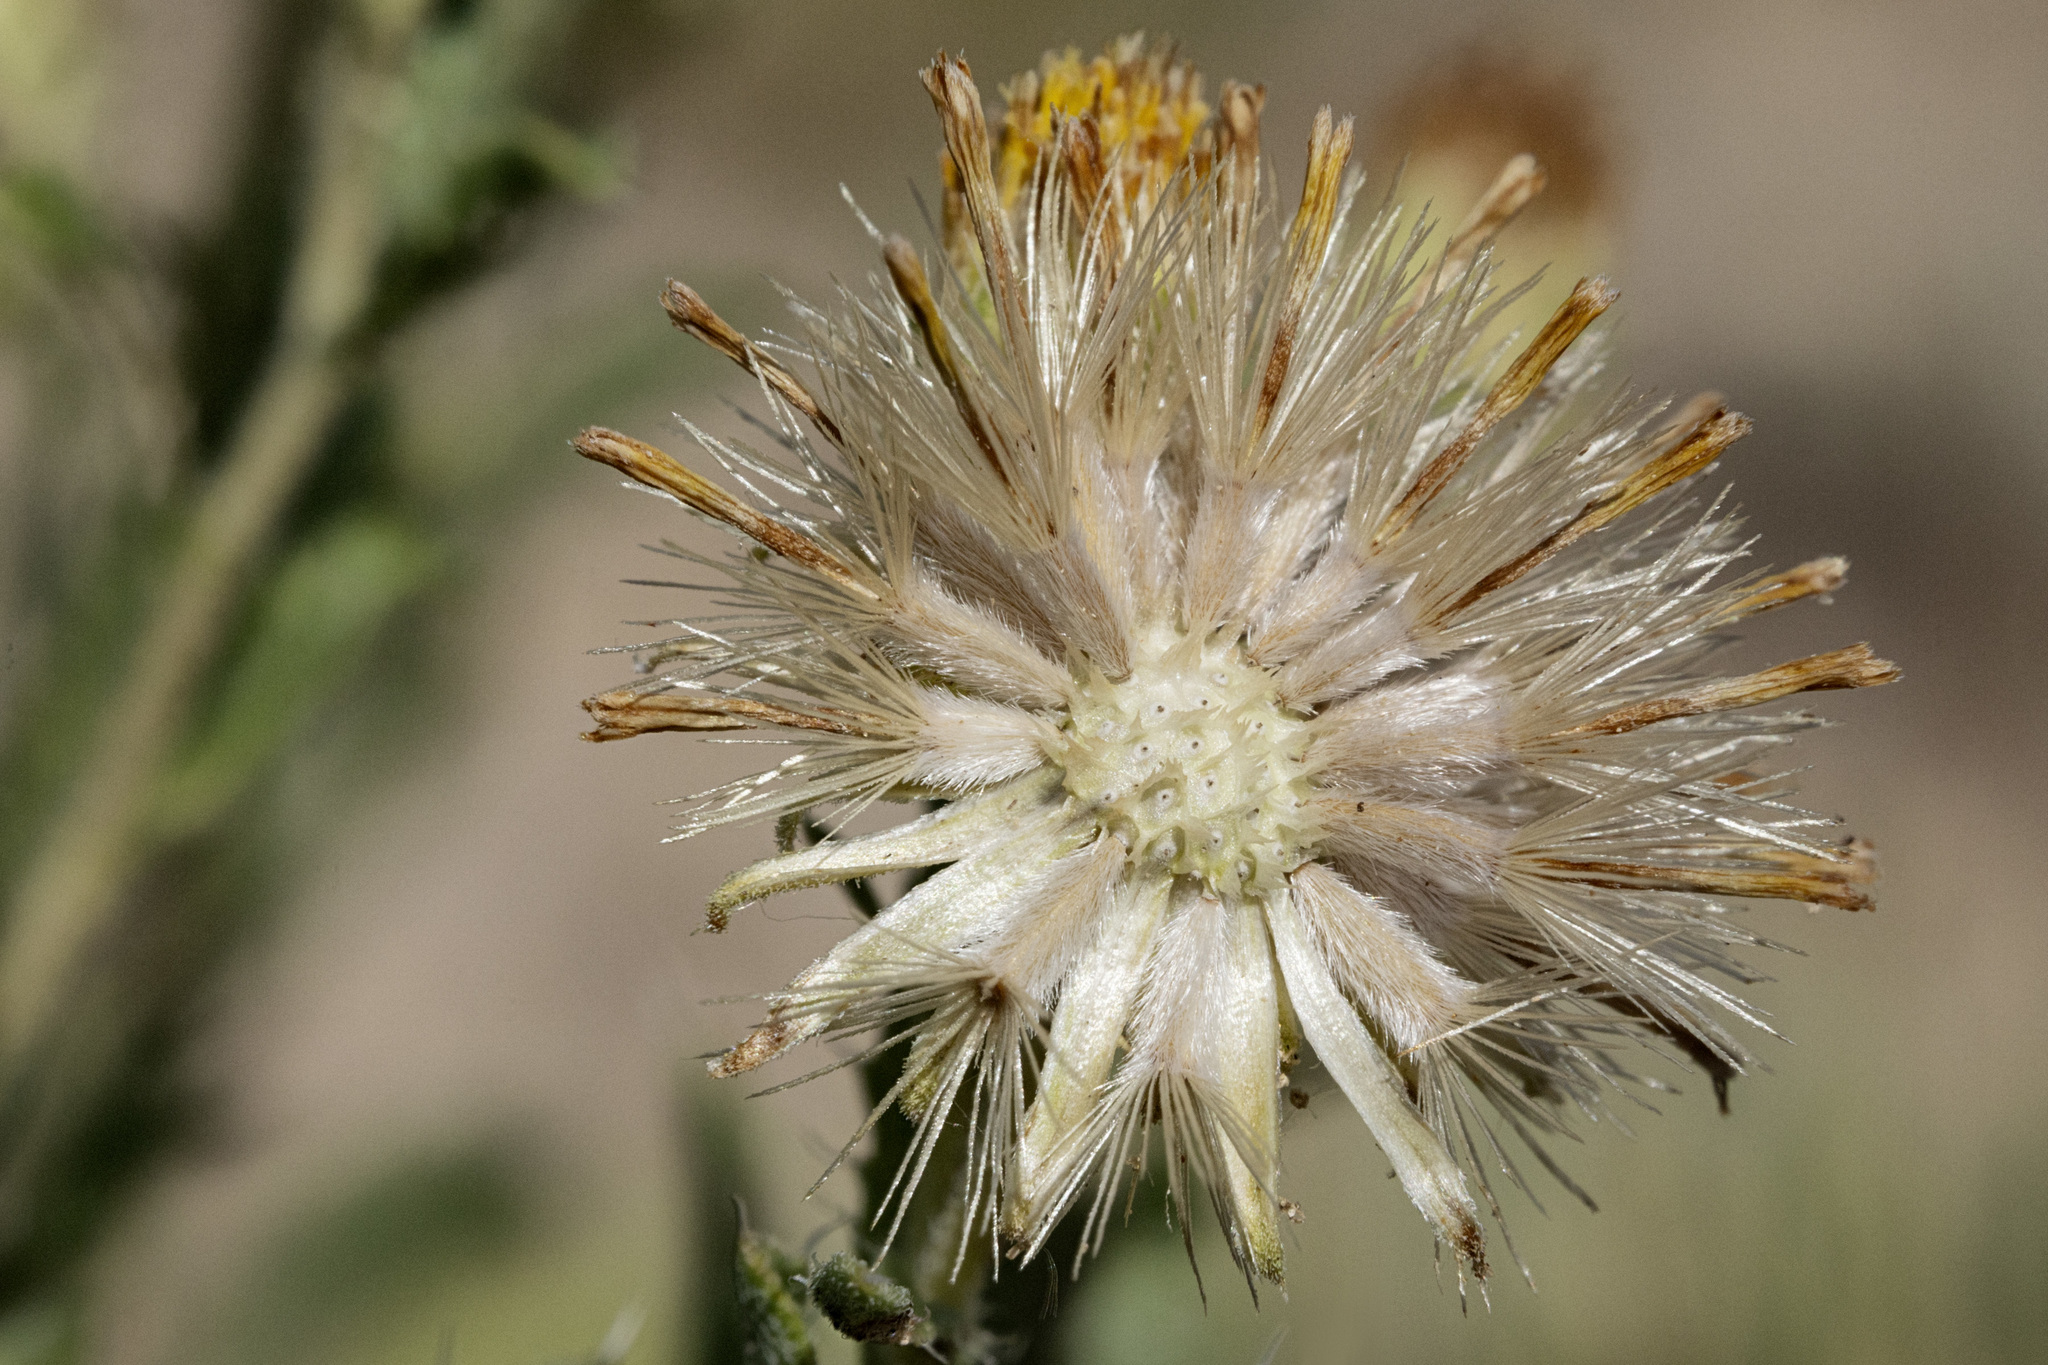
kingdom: Plantae
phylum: Tracheophyta
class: Magnoliopsida
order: Asterales
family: Asteraceae
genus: Xanthisma
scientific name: Xanthisma grindelioides
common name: Goldenweed
